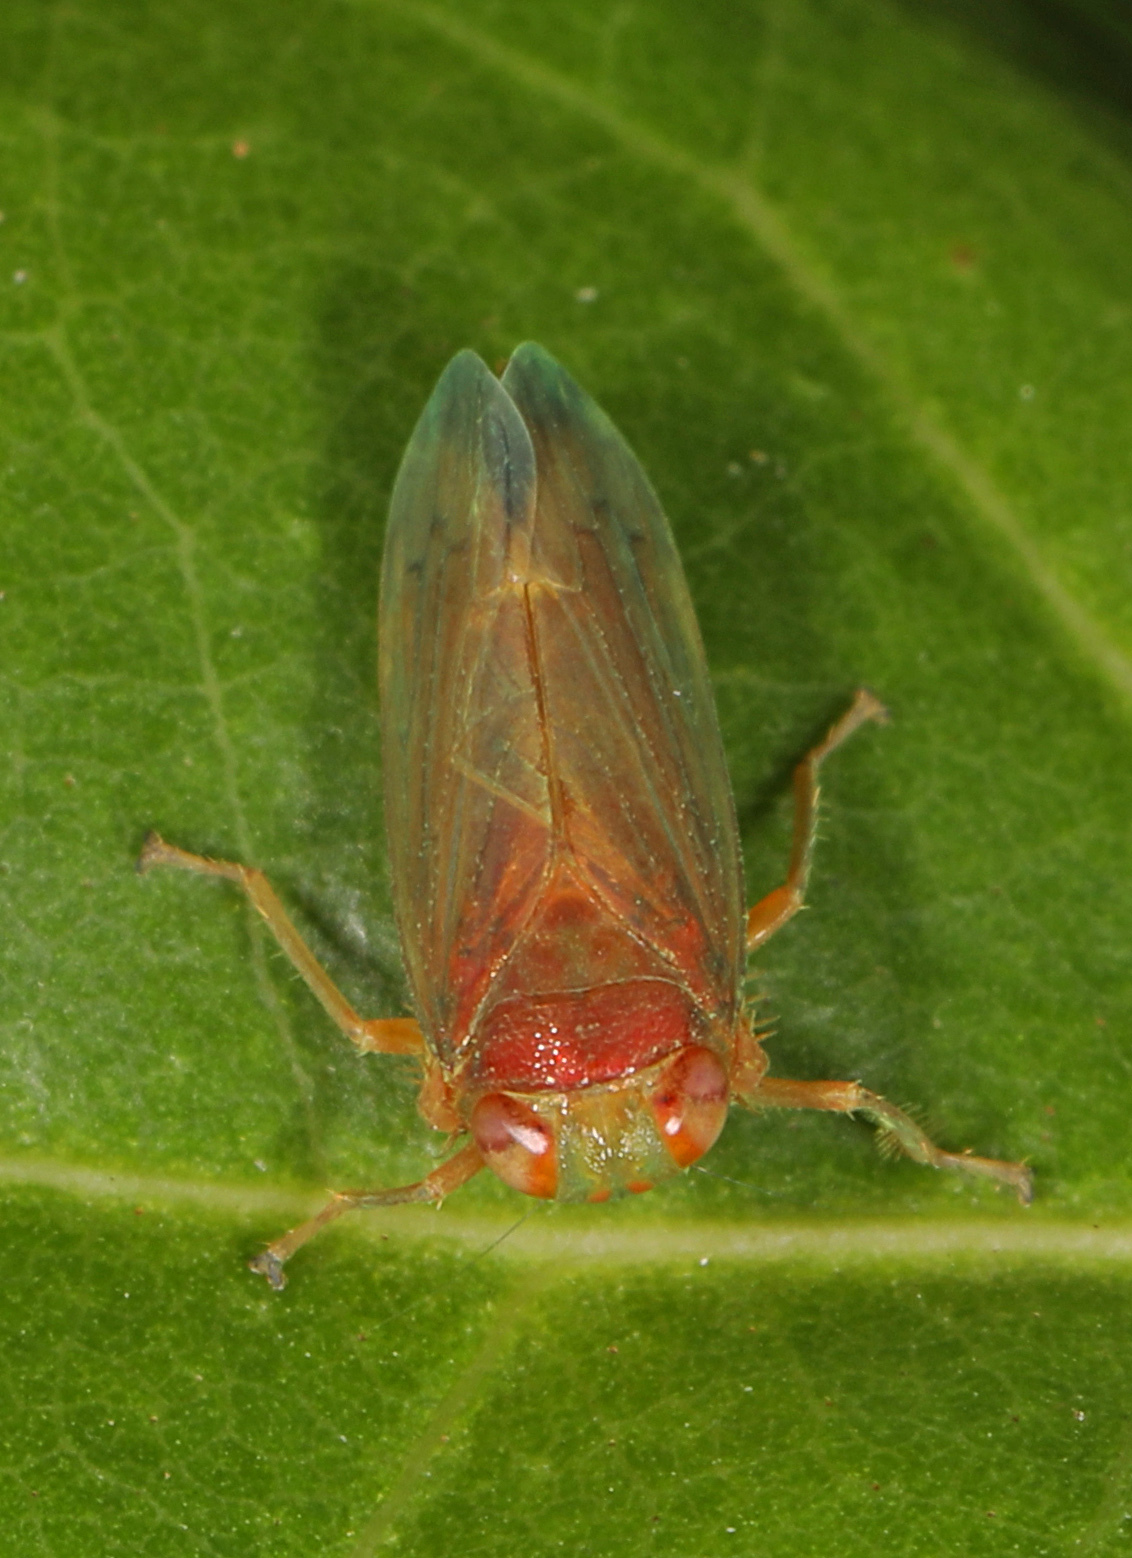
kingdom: Animalia
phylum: Arthropoda
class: Insecta
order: Hemiptera
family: Cicadellidae
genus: Jikradia
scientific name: Jikradia olitoria
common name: Coppery leafhopper
